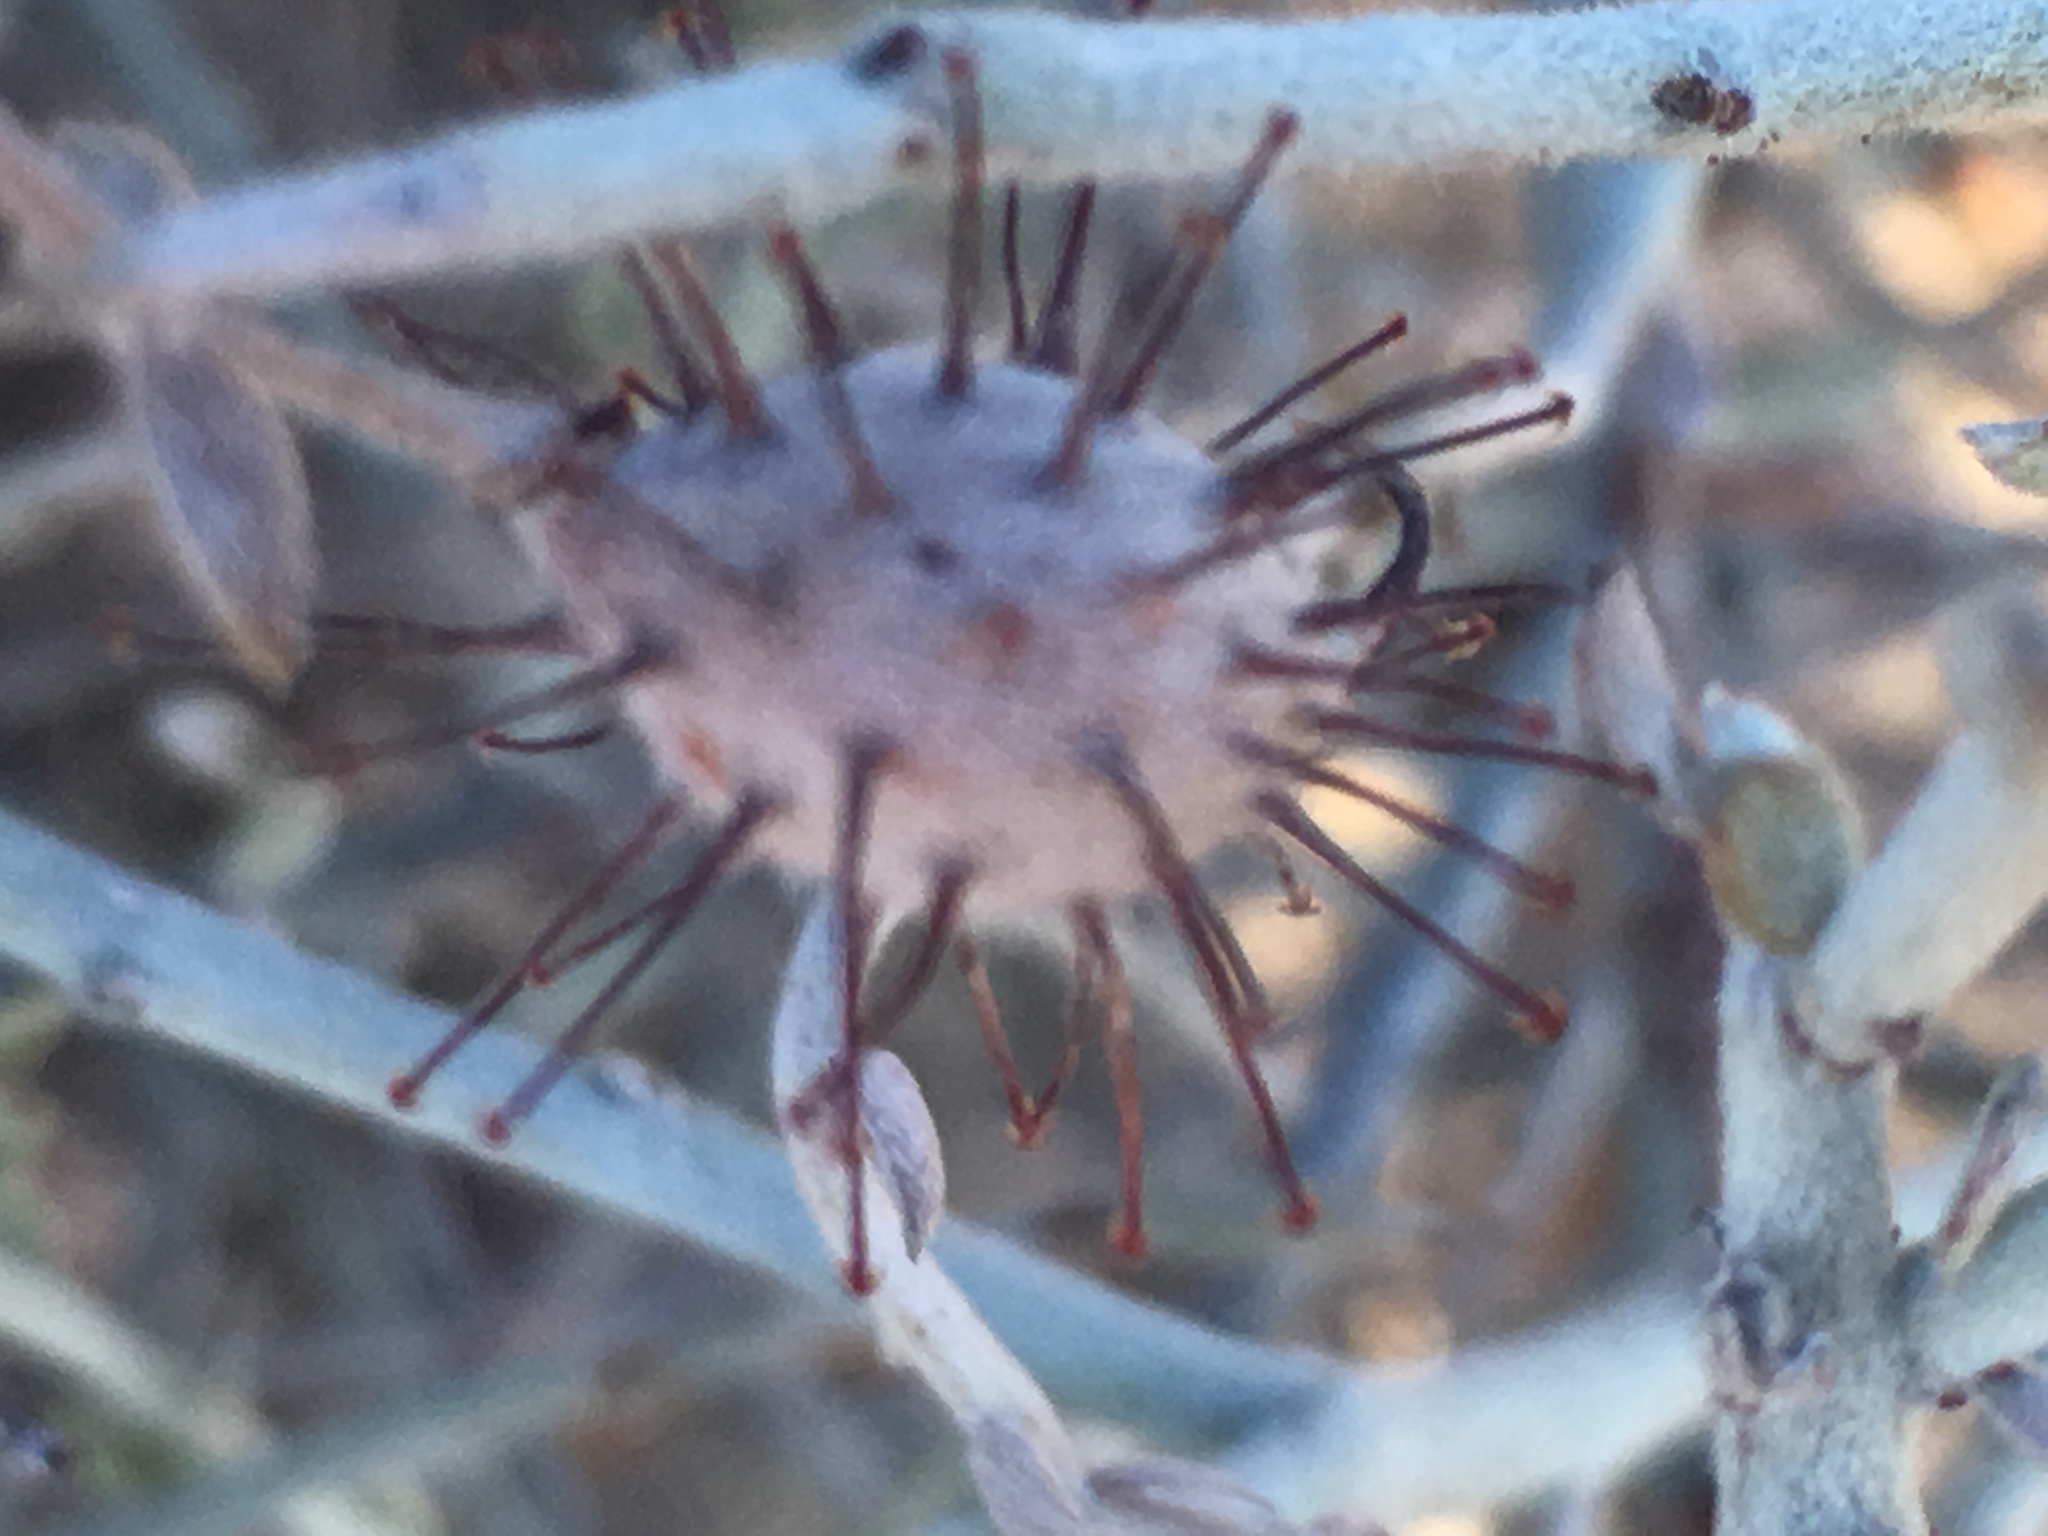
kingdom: Plantae
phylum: Tracheophyta
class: Magnoliopsida
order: Zygophyllales
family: Krameriaceae
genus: Krameria
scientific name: Krameria bicolor
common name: White ratany
